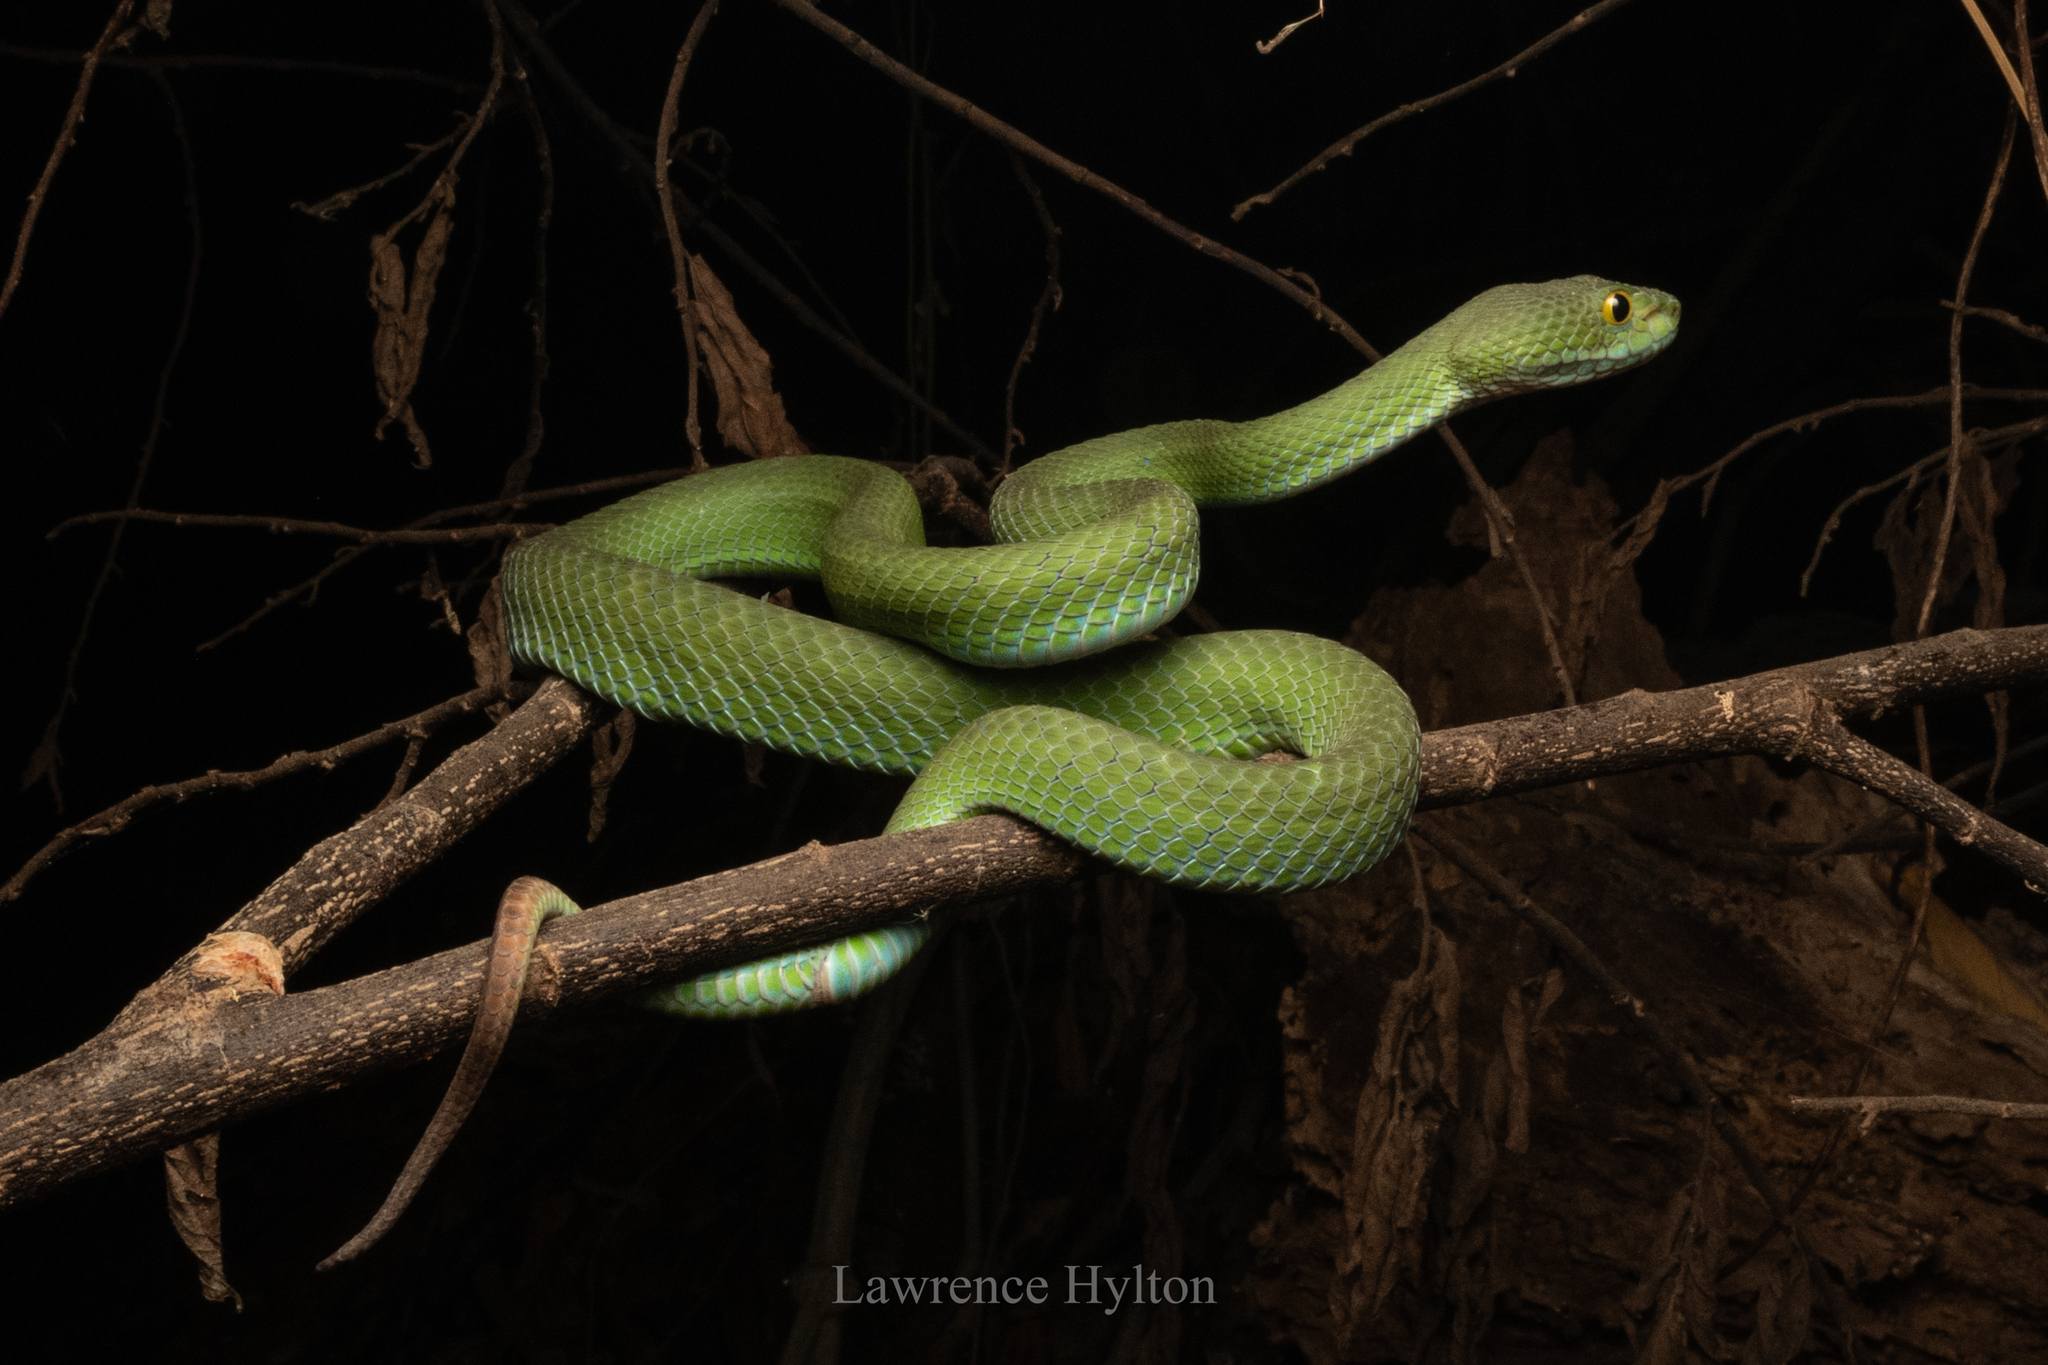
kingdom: Animalia
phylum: Chordata
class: Squamata
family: Viperidae
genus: Trimeresurus
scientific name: Trimeresurus macrops
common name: Kramer's pit viper
